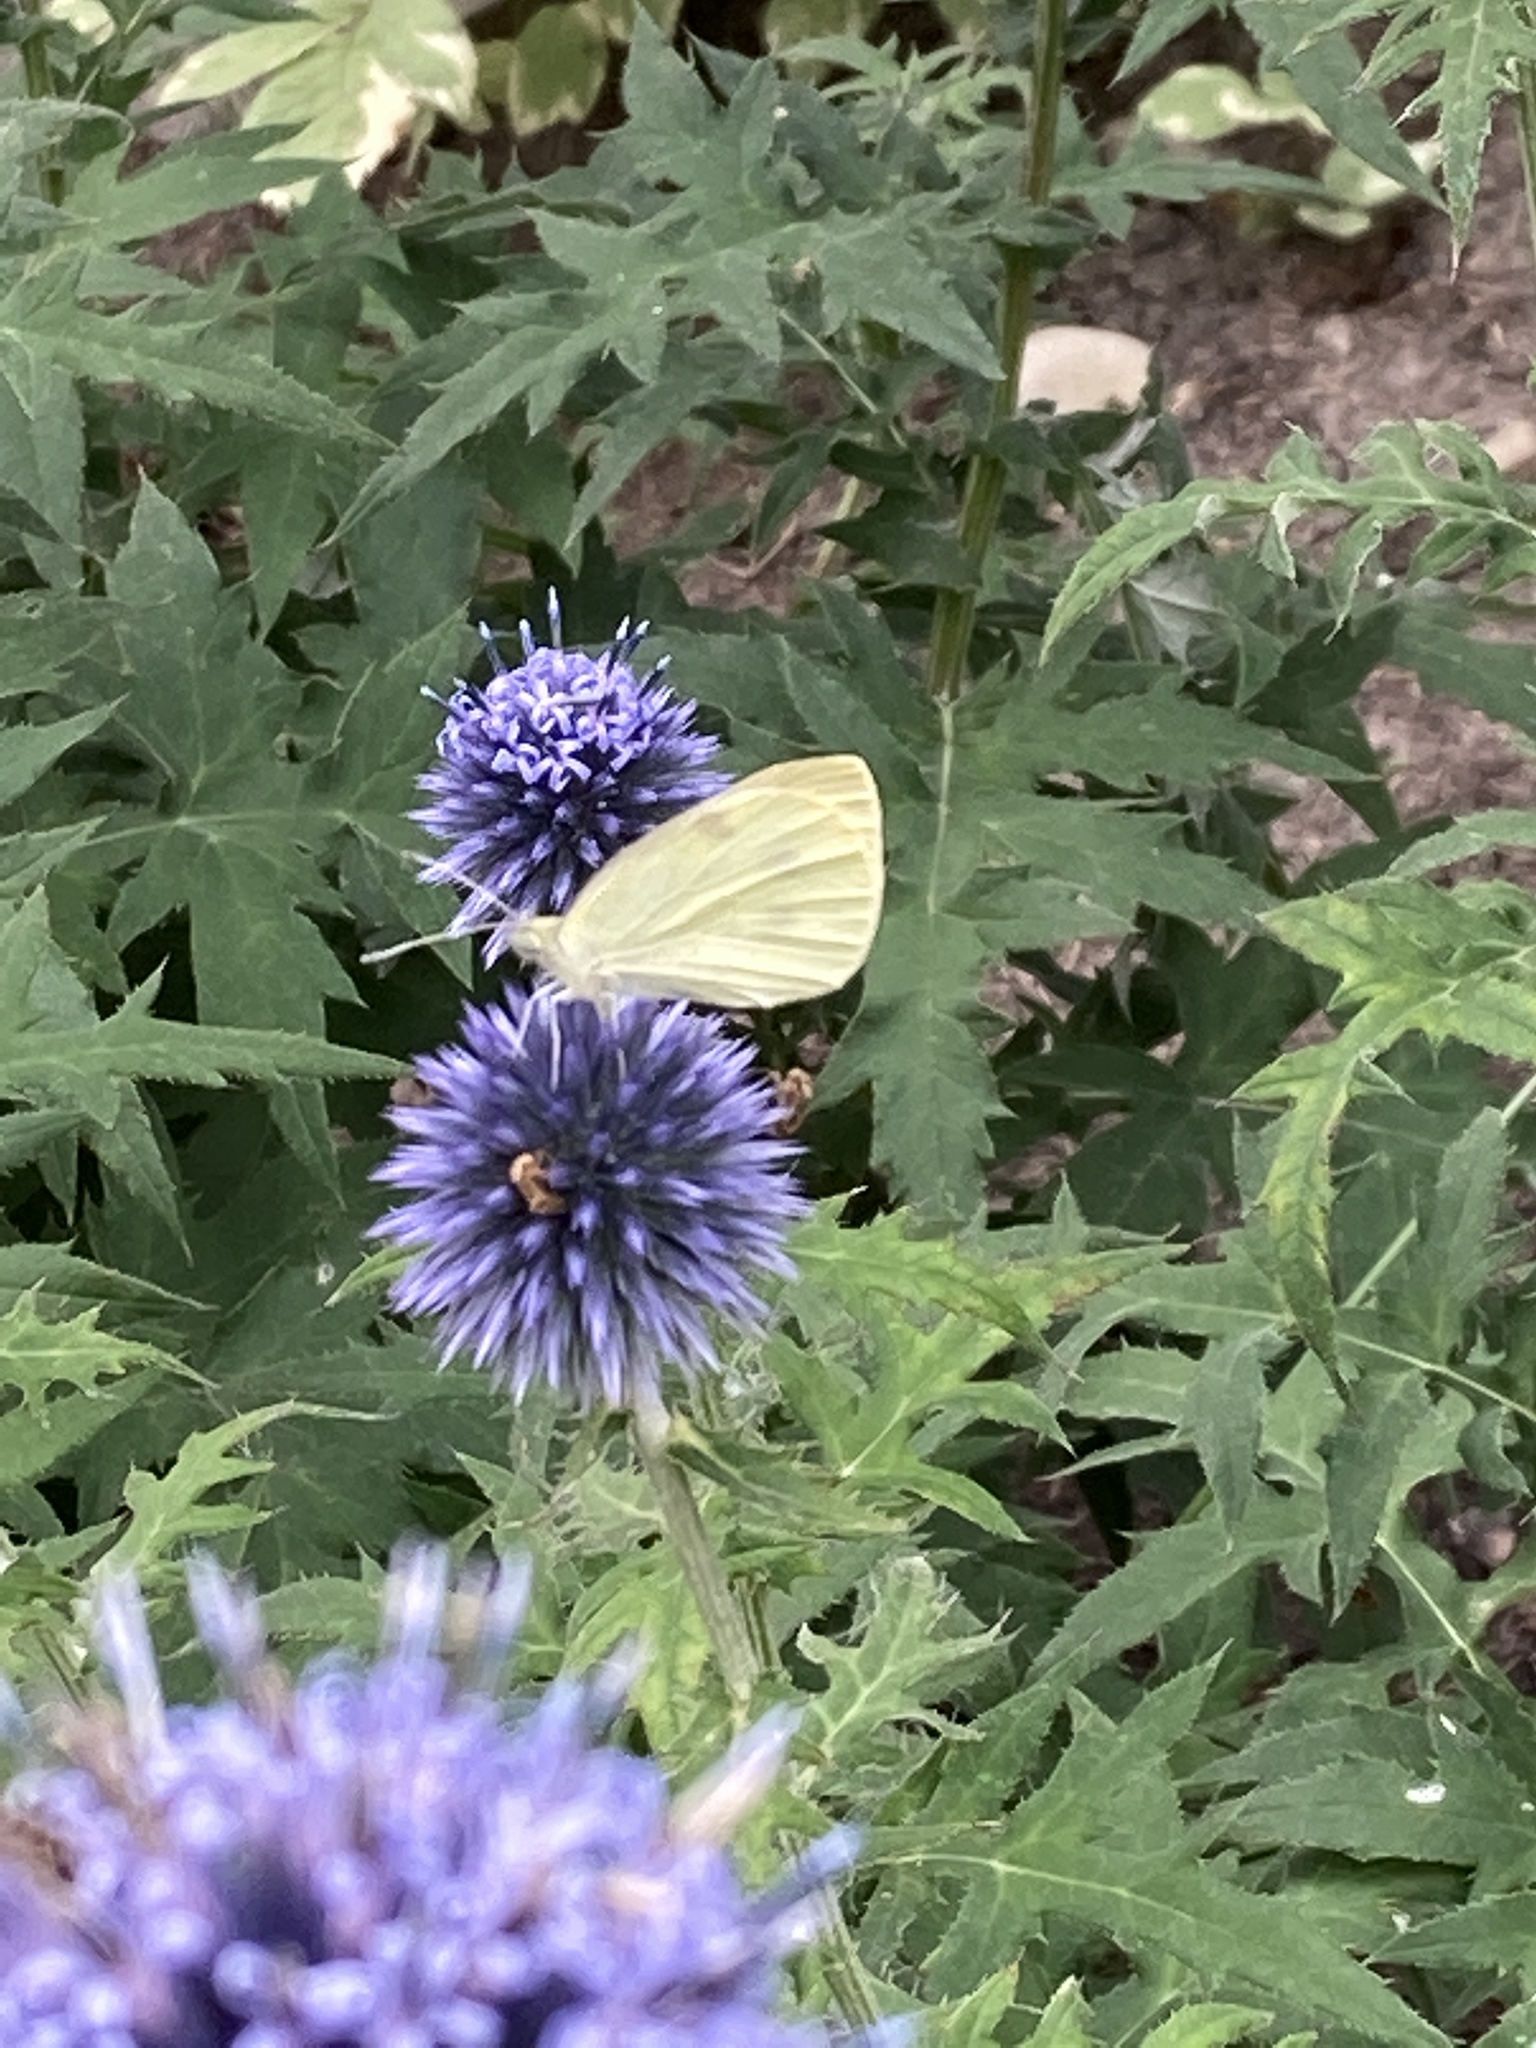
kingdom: Animalia
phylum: Arthropoda
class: Insecta
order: Lepidoptera
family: Pieridae
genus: Pieris
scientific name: Pieris rapae
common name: Small white
